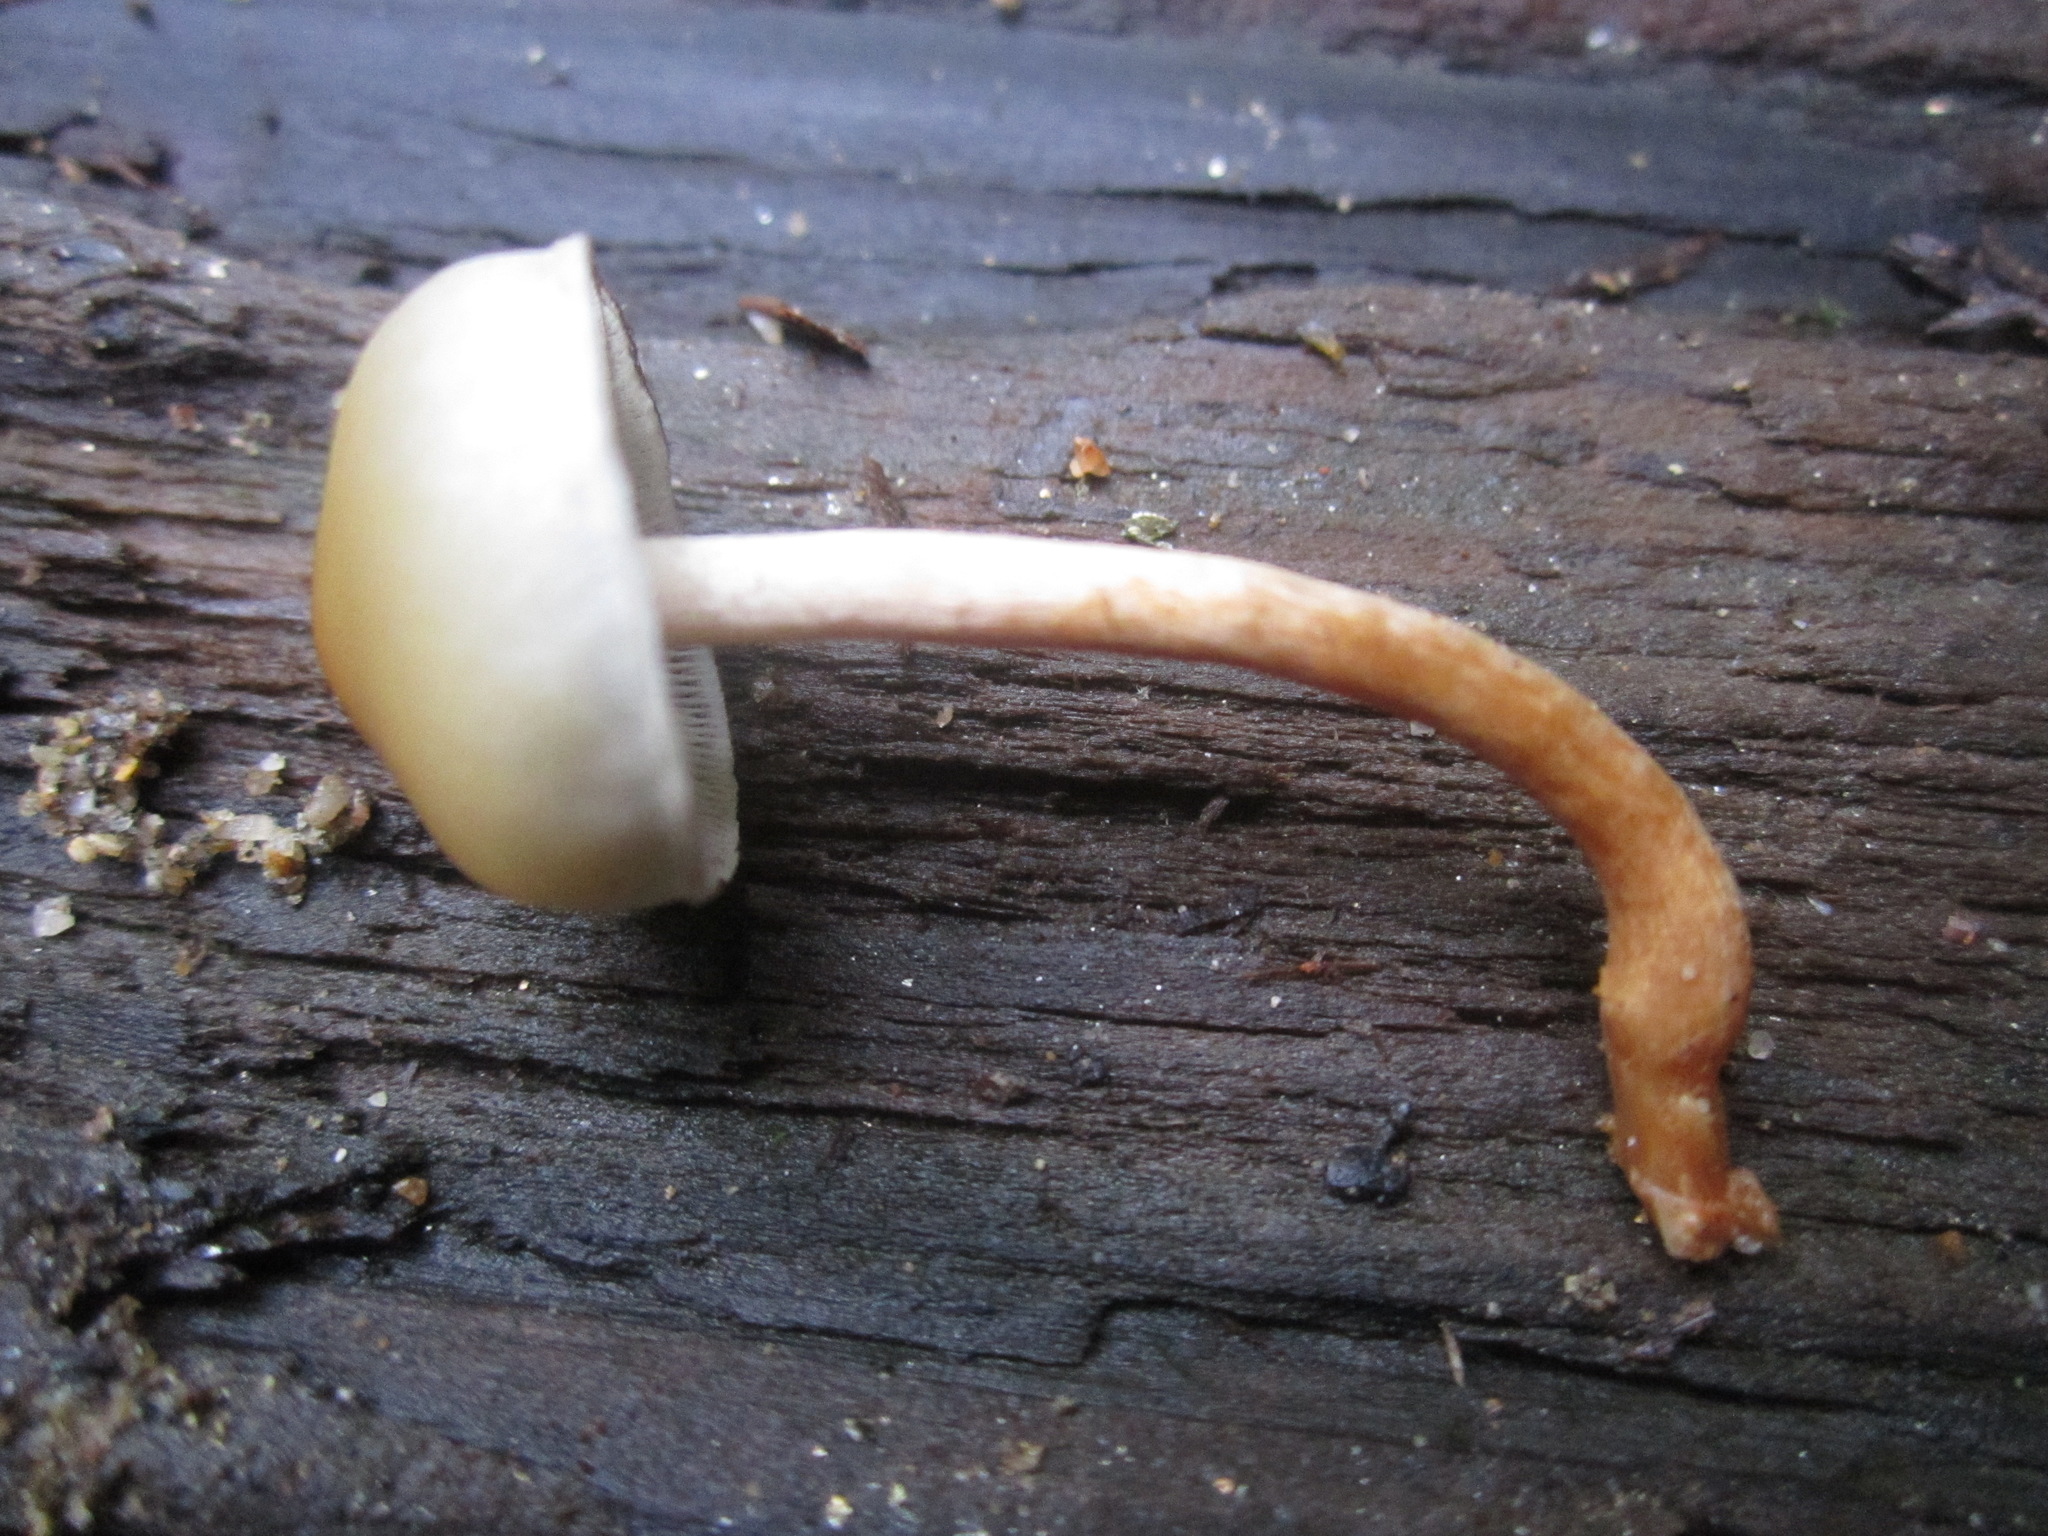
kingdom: Fungi
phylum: Basidiomycota
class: Agaricomycetes
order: Agaricales
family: Strophariaceae
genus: Hypholoma
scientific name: Hypholoma capnoides
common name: Conifer tuft
